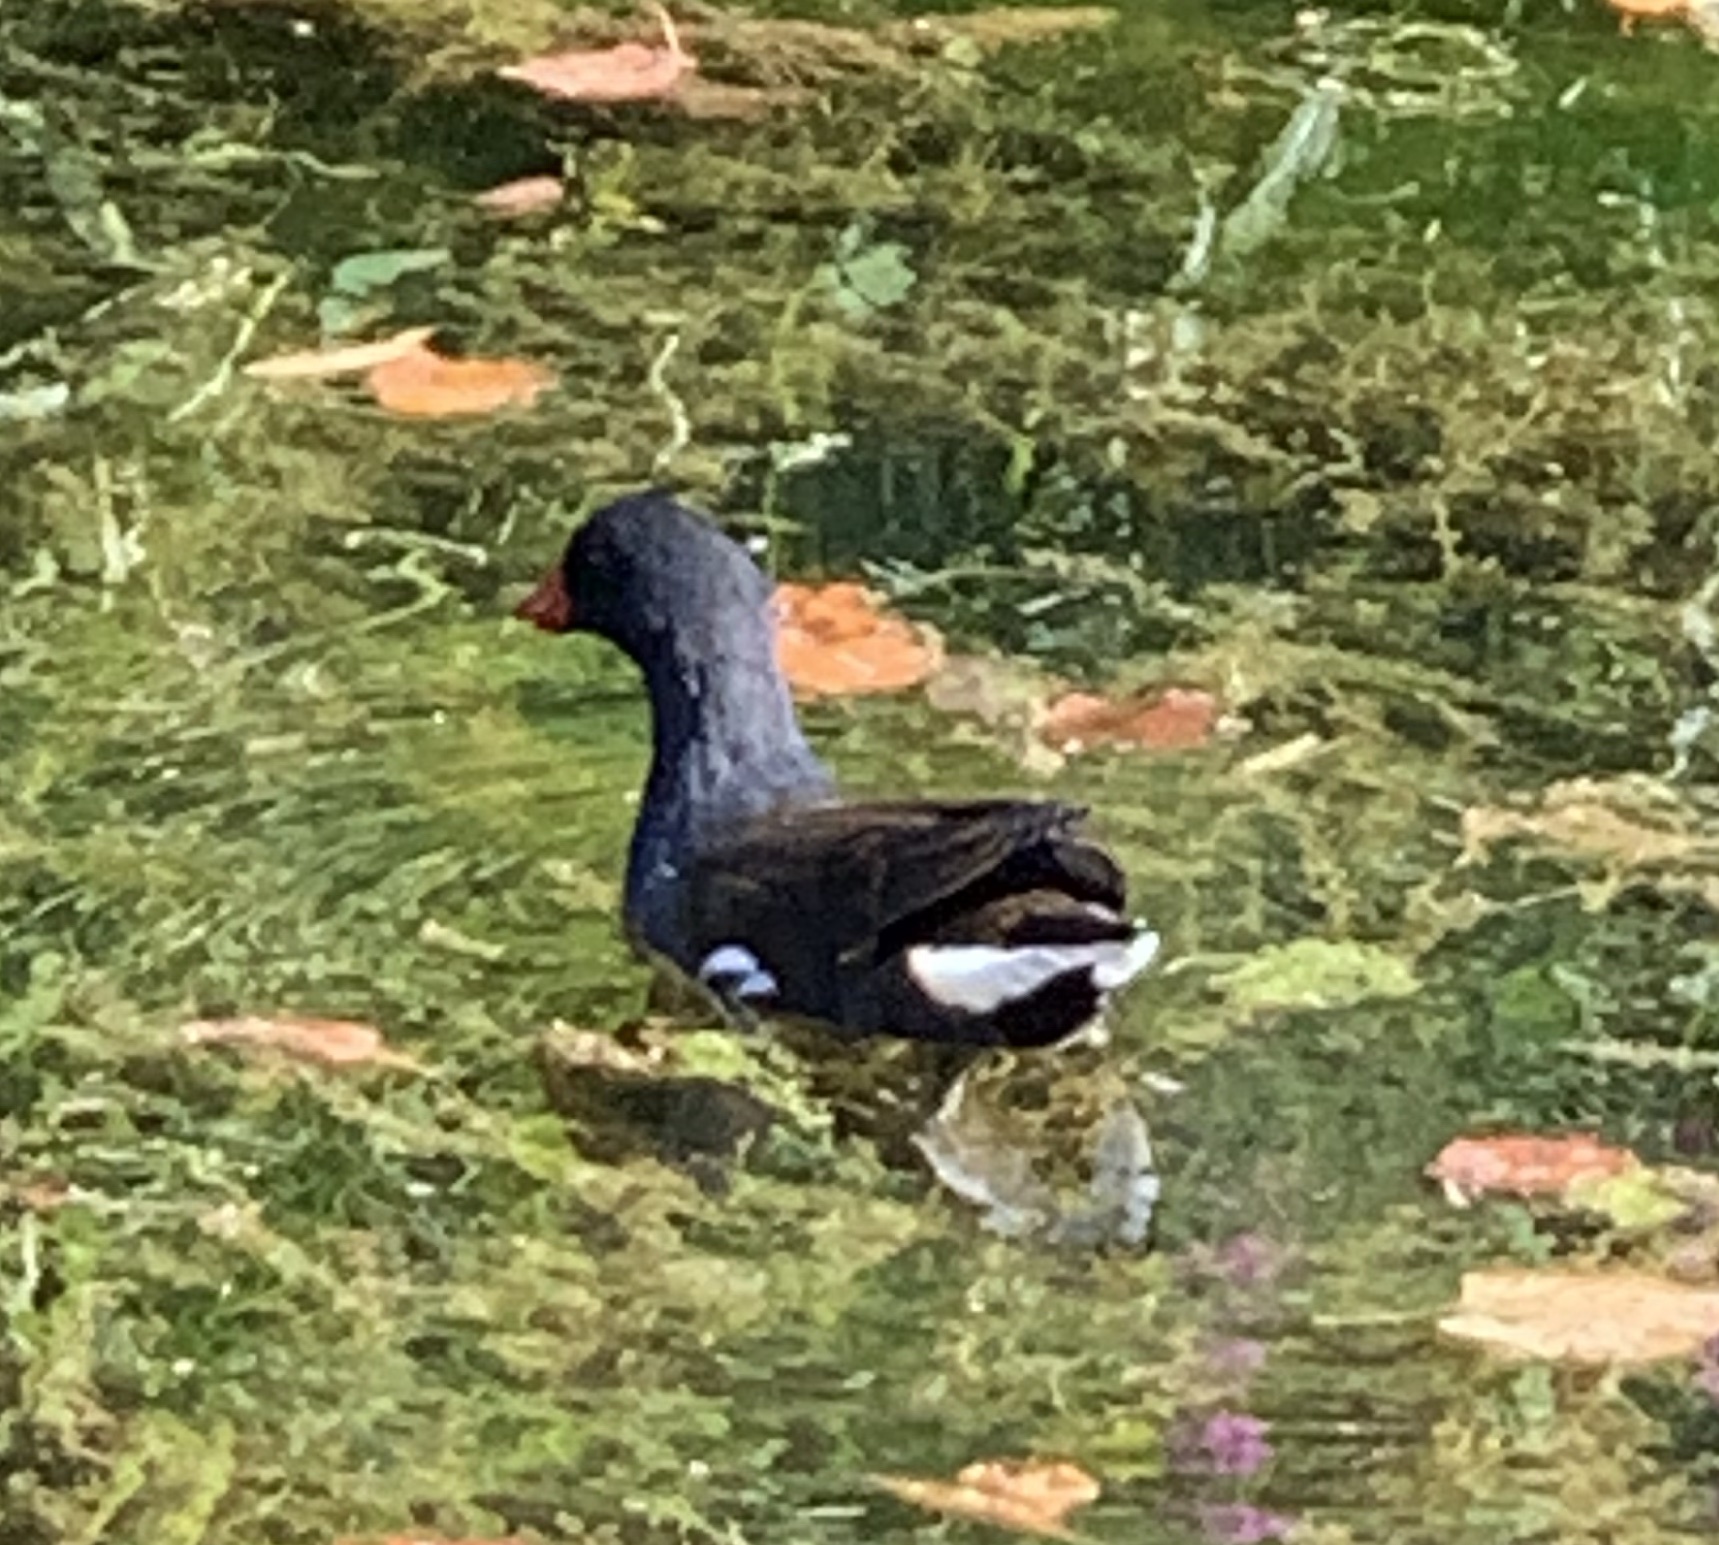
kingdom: Animalia
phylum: Chordata
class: Aves
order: Gruiformes
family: Rallidae
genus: Gallinula
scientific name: Gallinula chloropus
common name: Common moorhen
